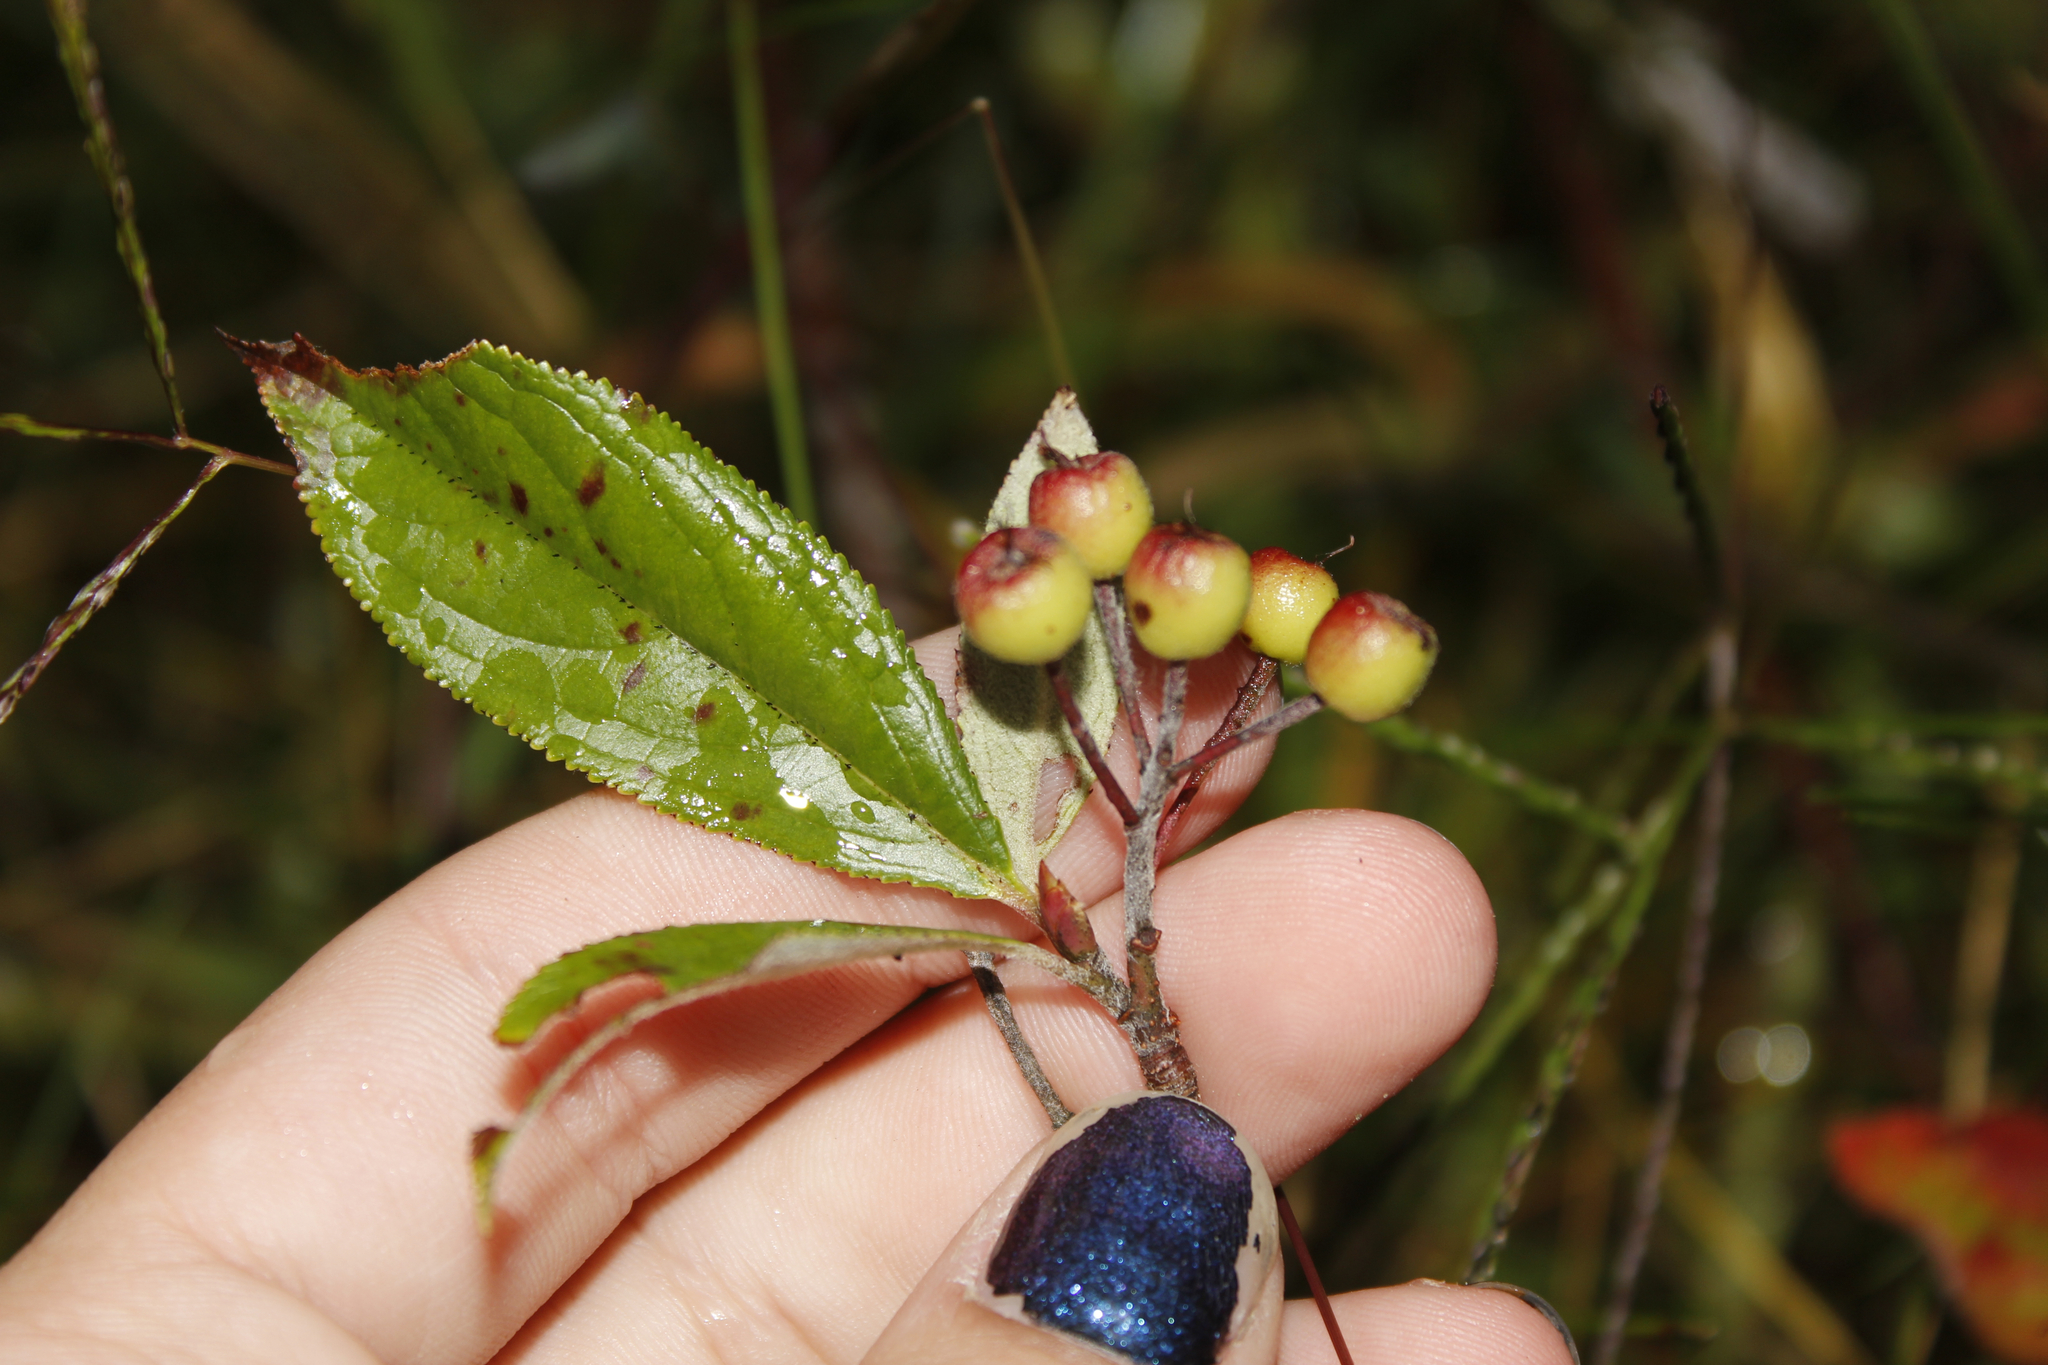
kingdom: Plantae
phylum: Tracheophyta
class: Magnoliopsida
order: Rosales
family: Rosaceae
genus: Aronia
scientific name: Aronia prunifolia
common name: Purple chokeberry
